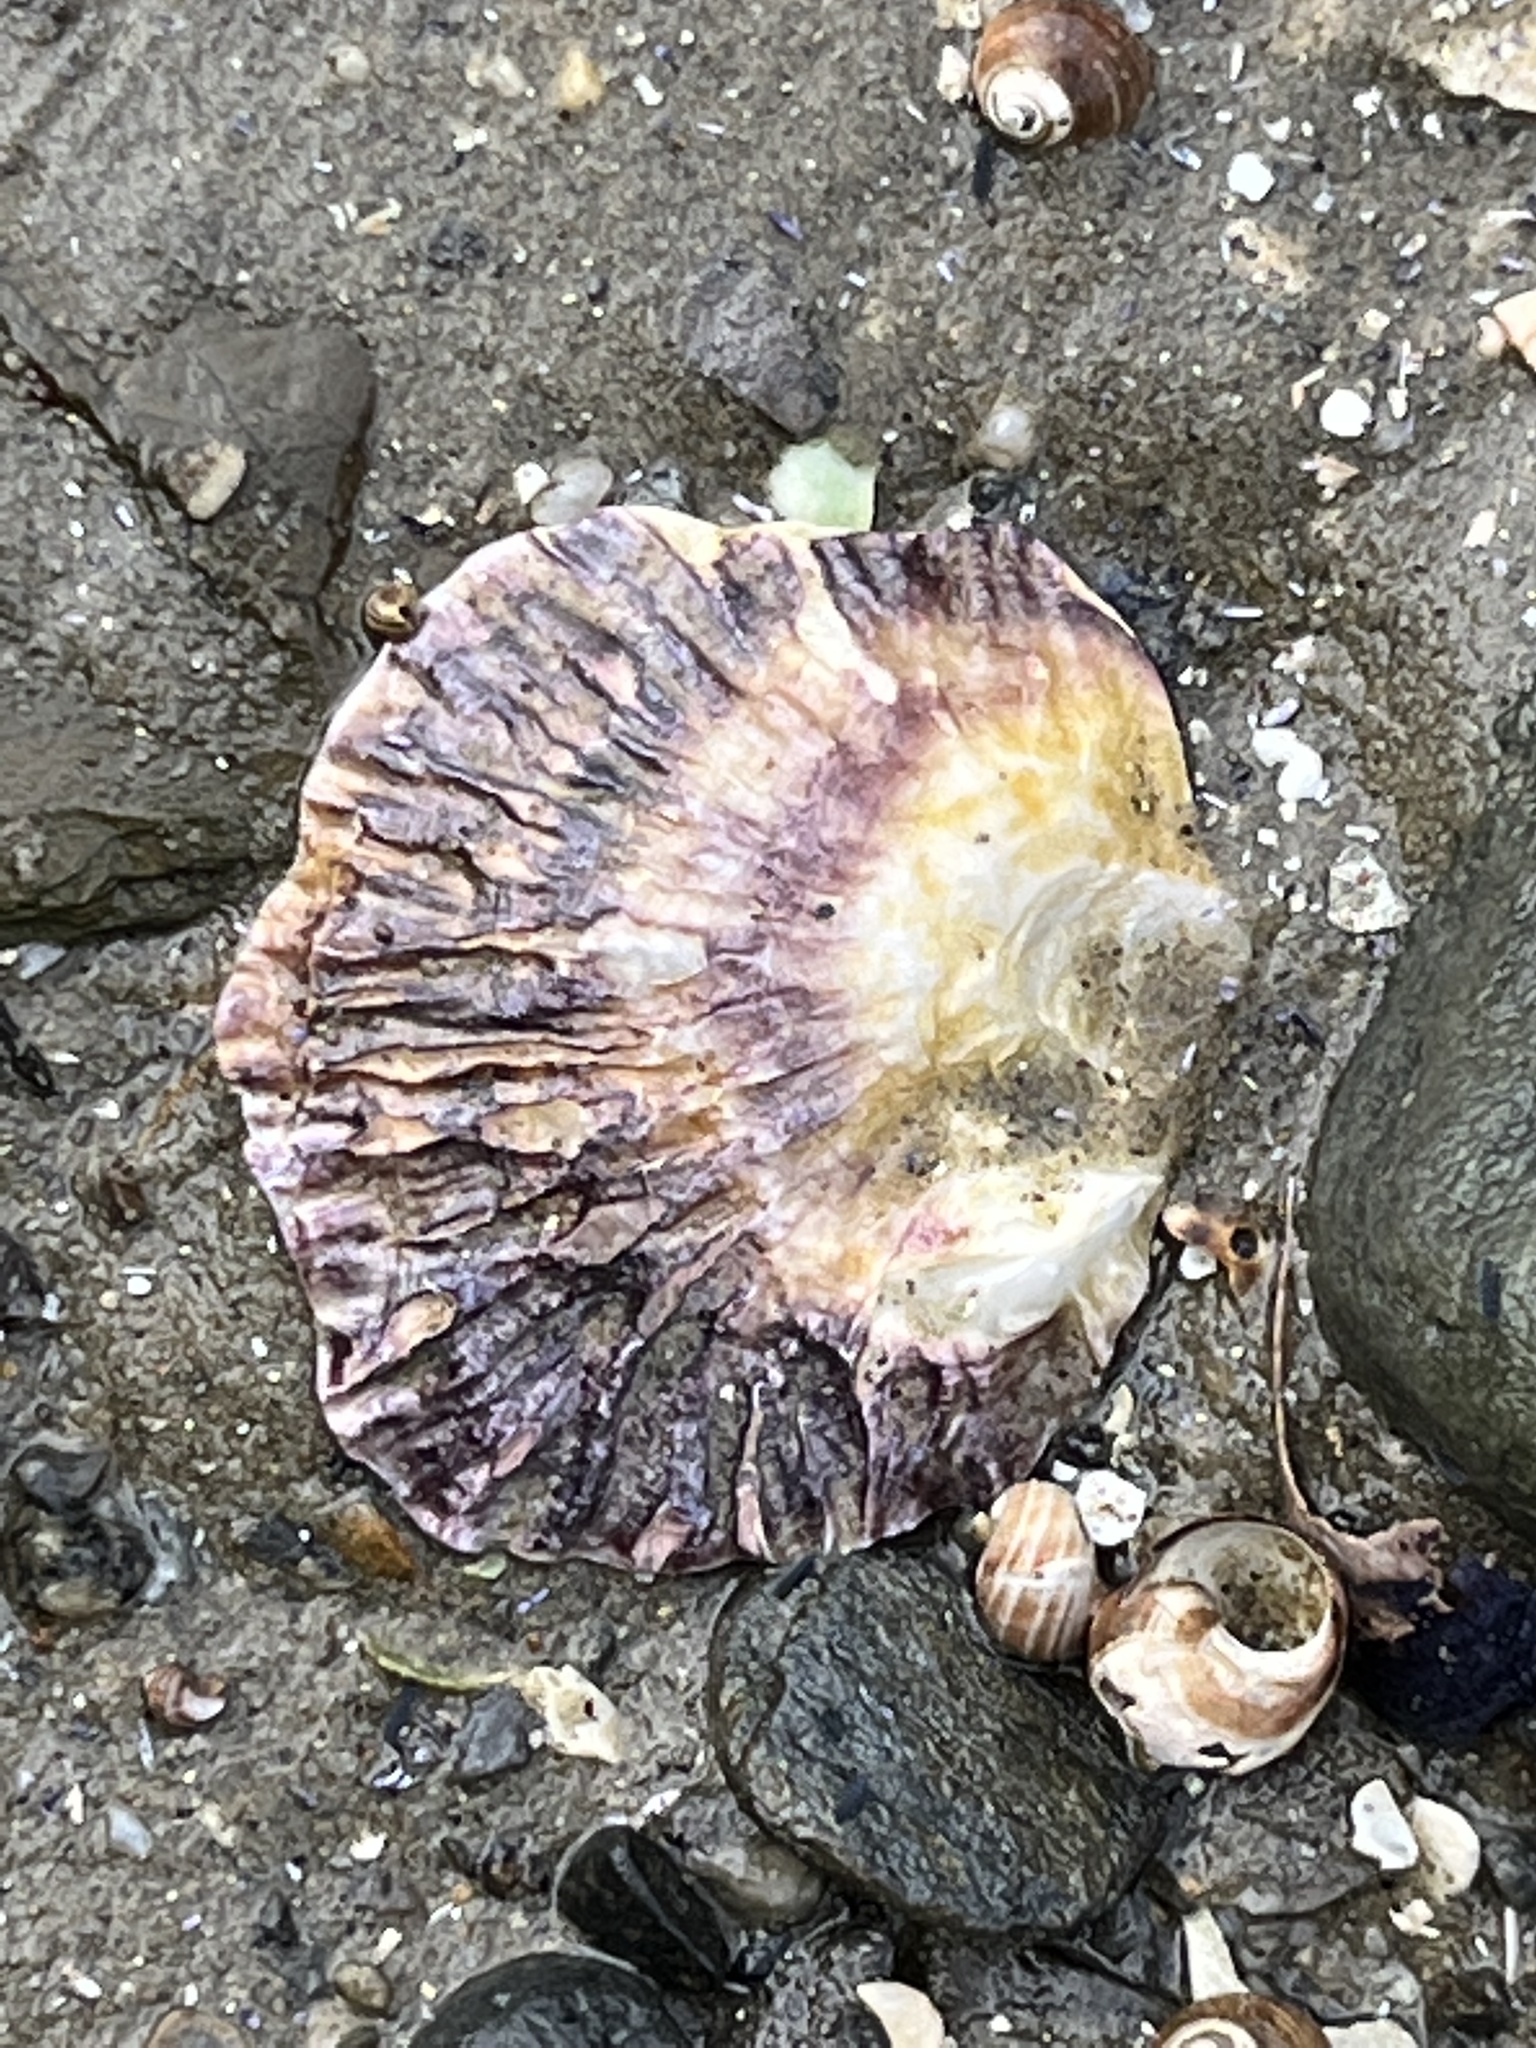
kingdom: Animalia
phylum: Mollusca
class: Bivalvia
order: Ostreida
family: Ostreidae
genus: Ostrea
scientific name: Ostrea edulis
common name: Flat oyster
